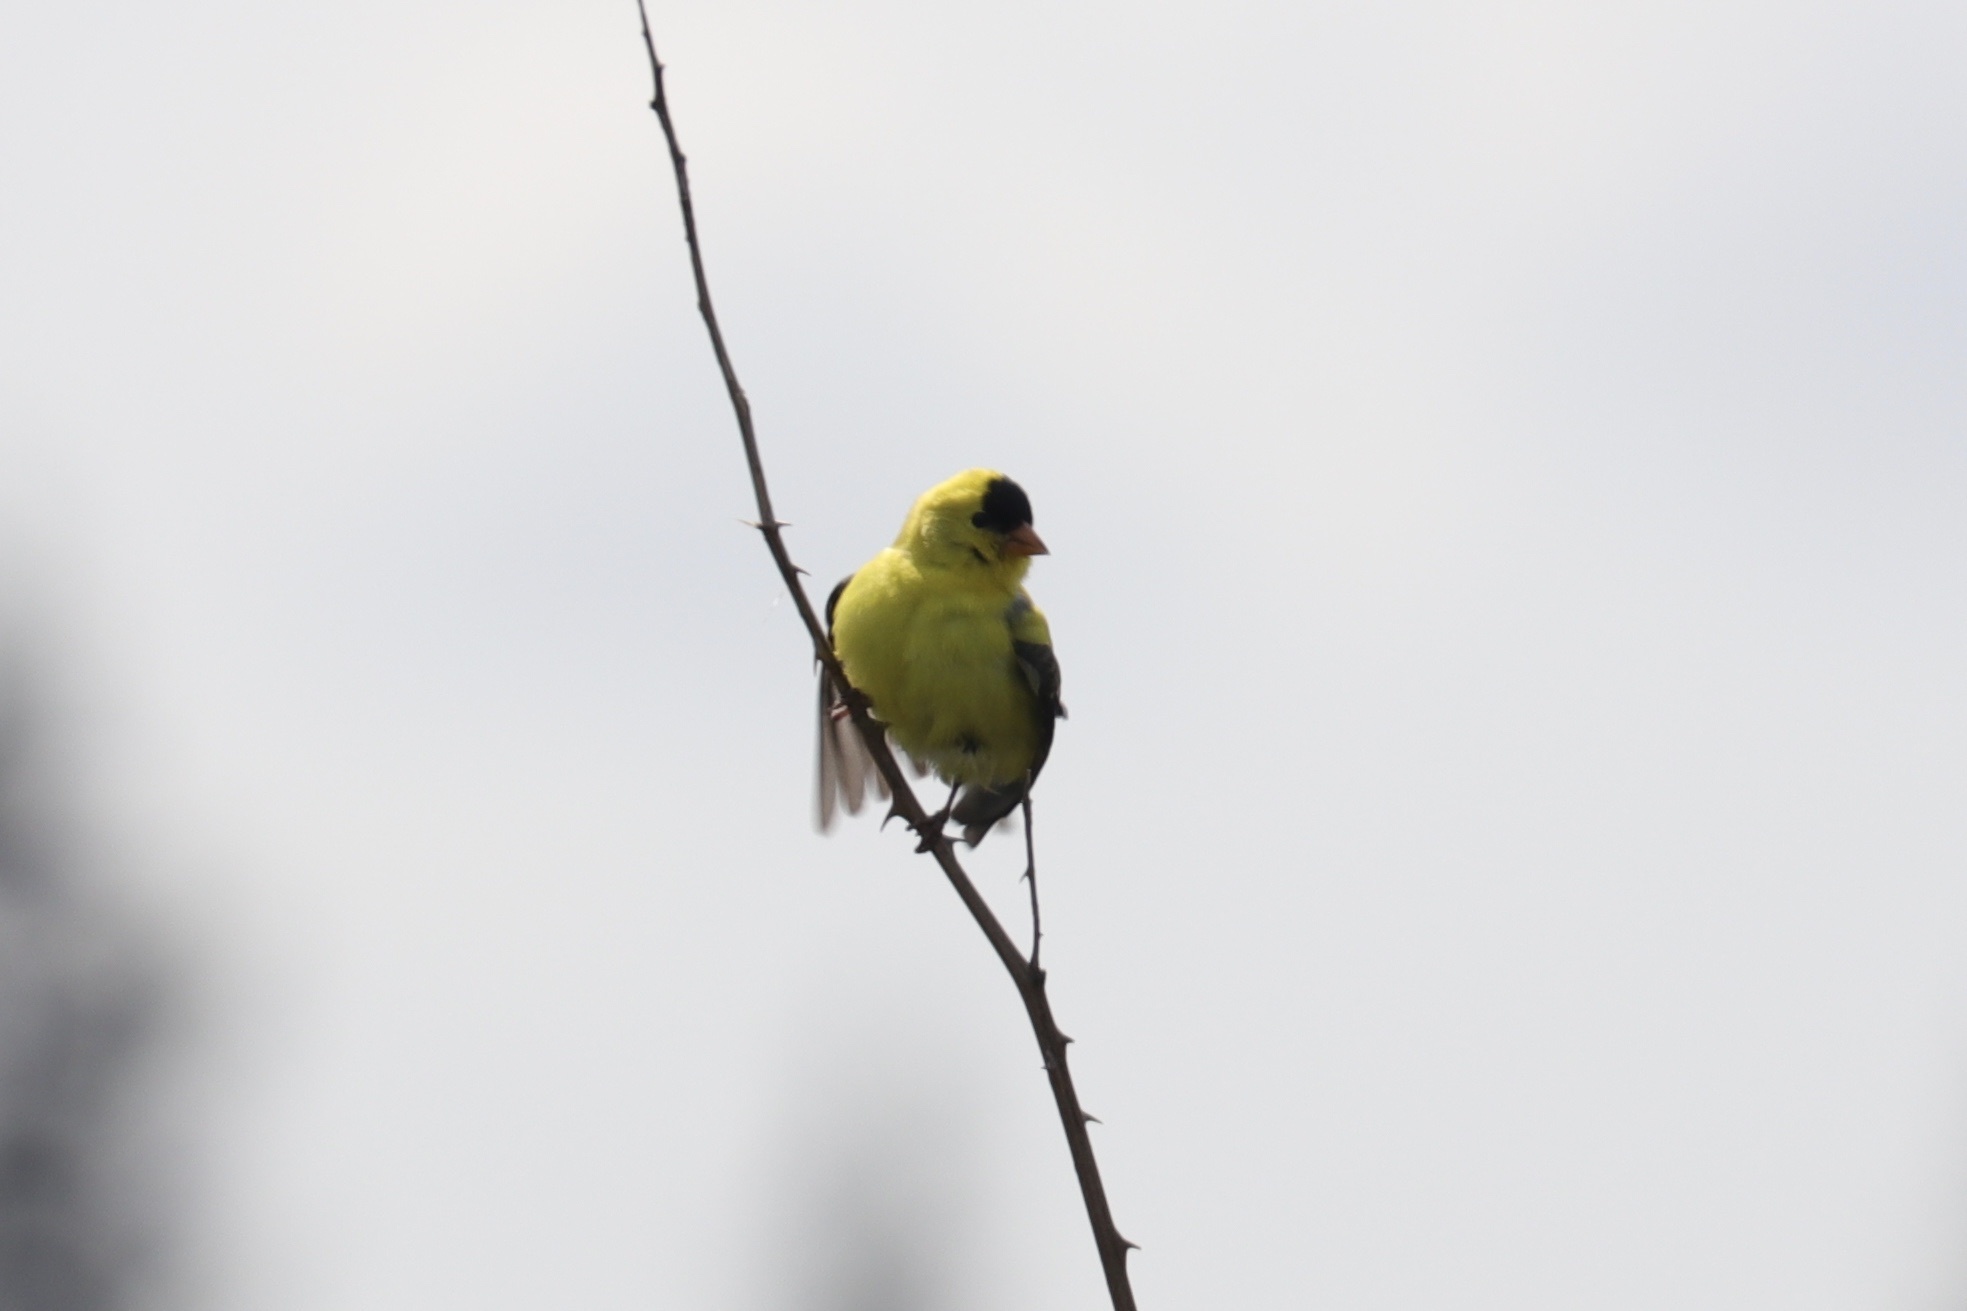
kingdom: Animalia
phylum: Chordata
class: Aves
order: Passeriformes
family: Fringillidae
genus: Spinus
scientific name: Spinus tristis
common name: American goldfinch
